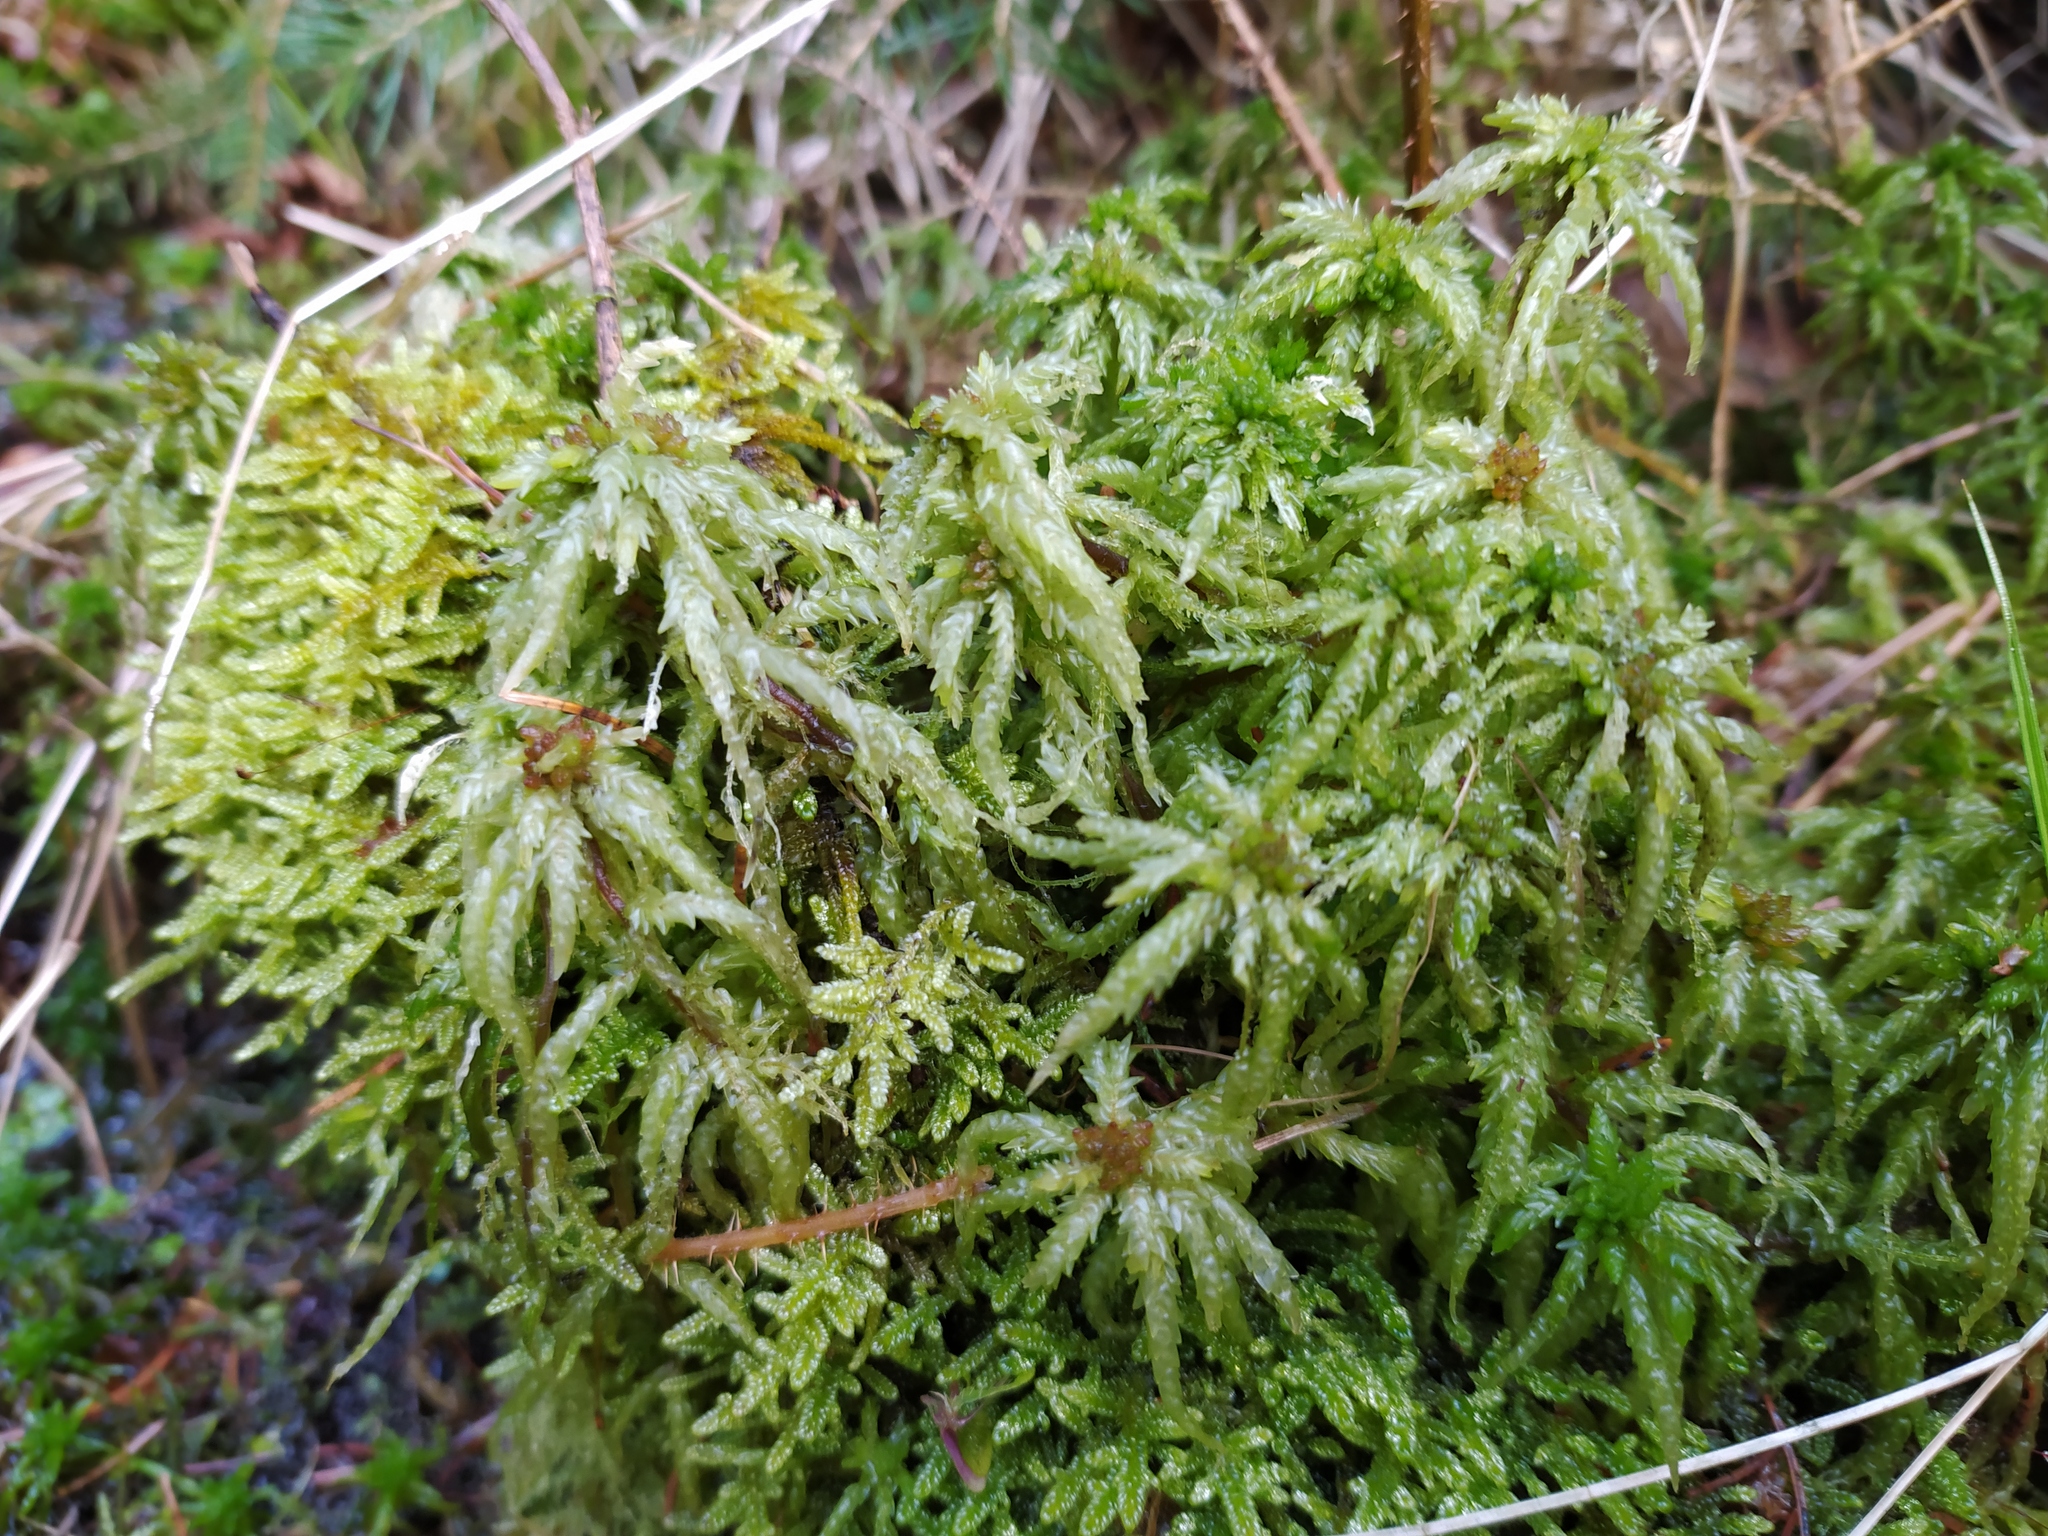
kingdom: Plantae
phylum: Bryophyta
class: Sphagnopsida
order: Sphagnales
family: Sphagnaceae
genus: Sphagnum
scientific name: Sphagnum palustre
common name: Blunt-leaved bog-moss
